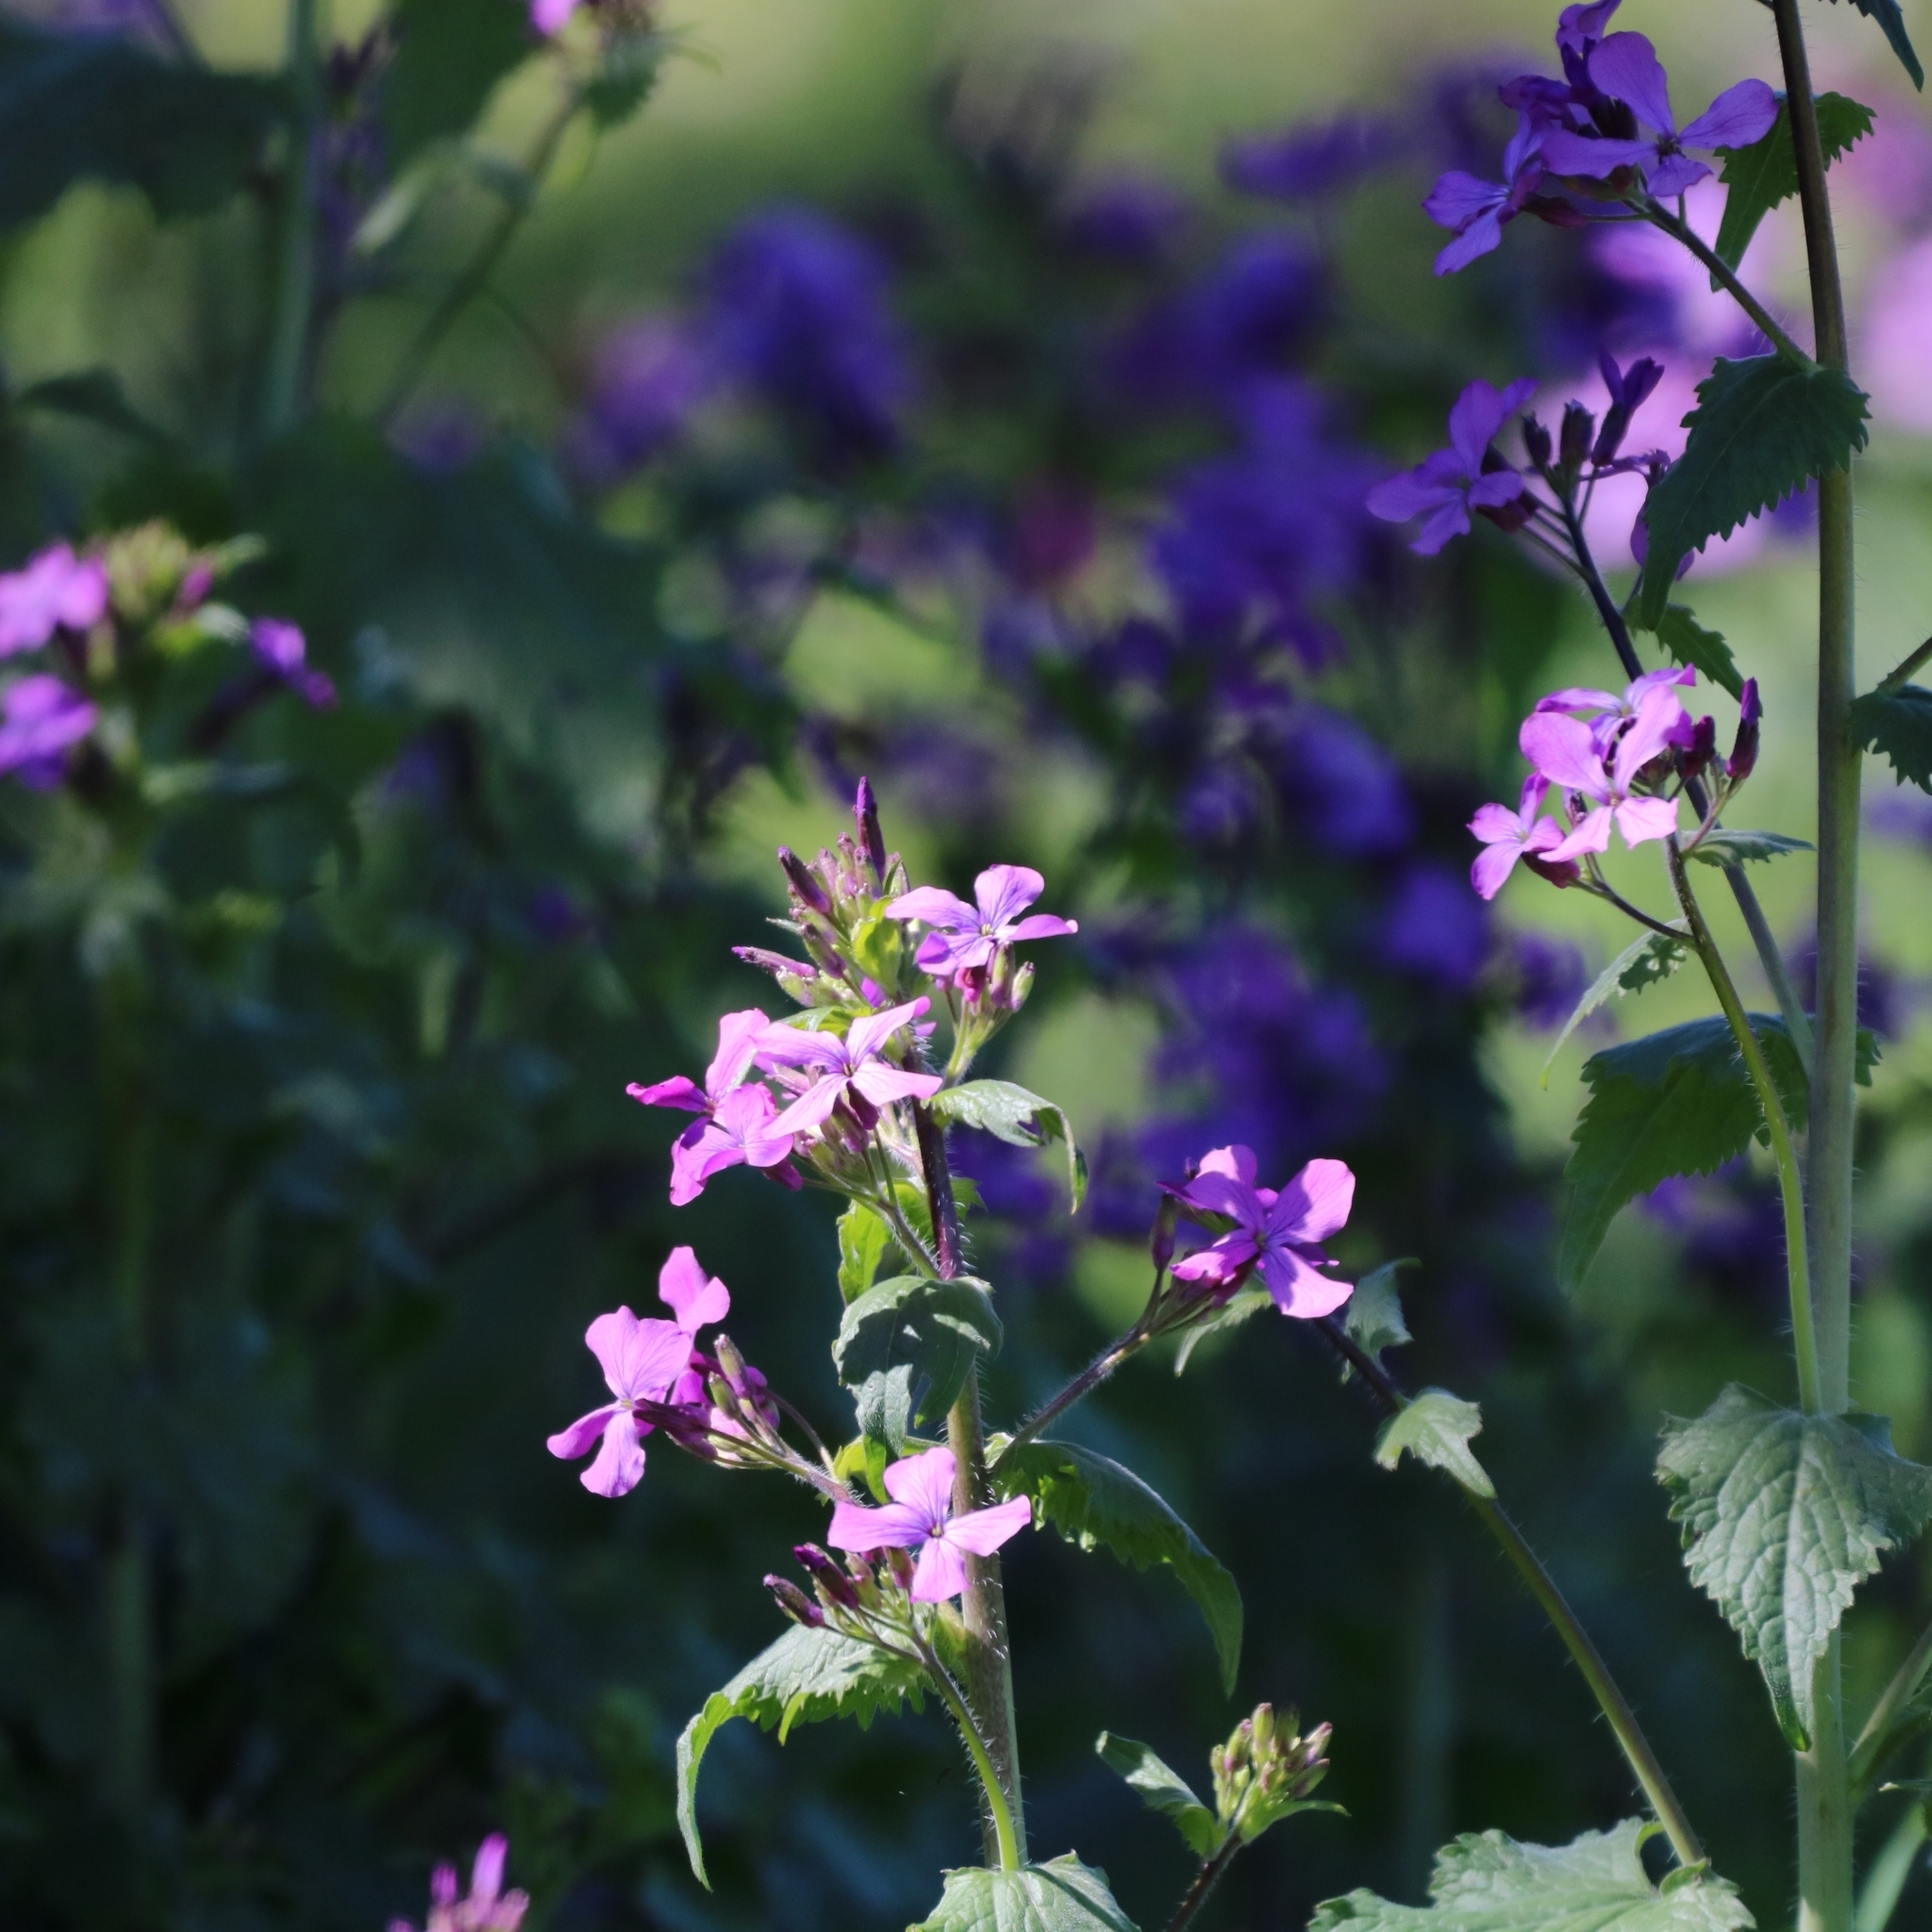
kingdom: Plantae
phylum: Tracheophyta
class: Magnoliopsida
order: Brassicales
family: Brassicaceae
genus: Lunaria
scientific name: Lunaria annua
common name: Honesty
